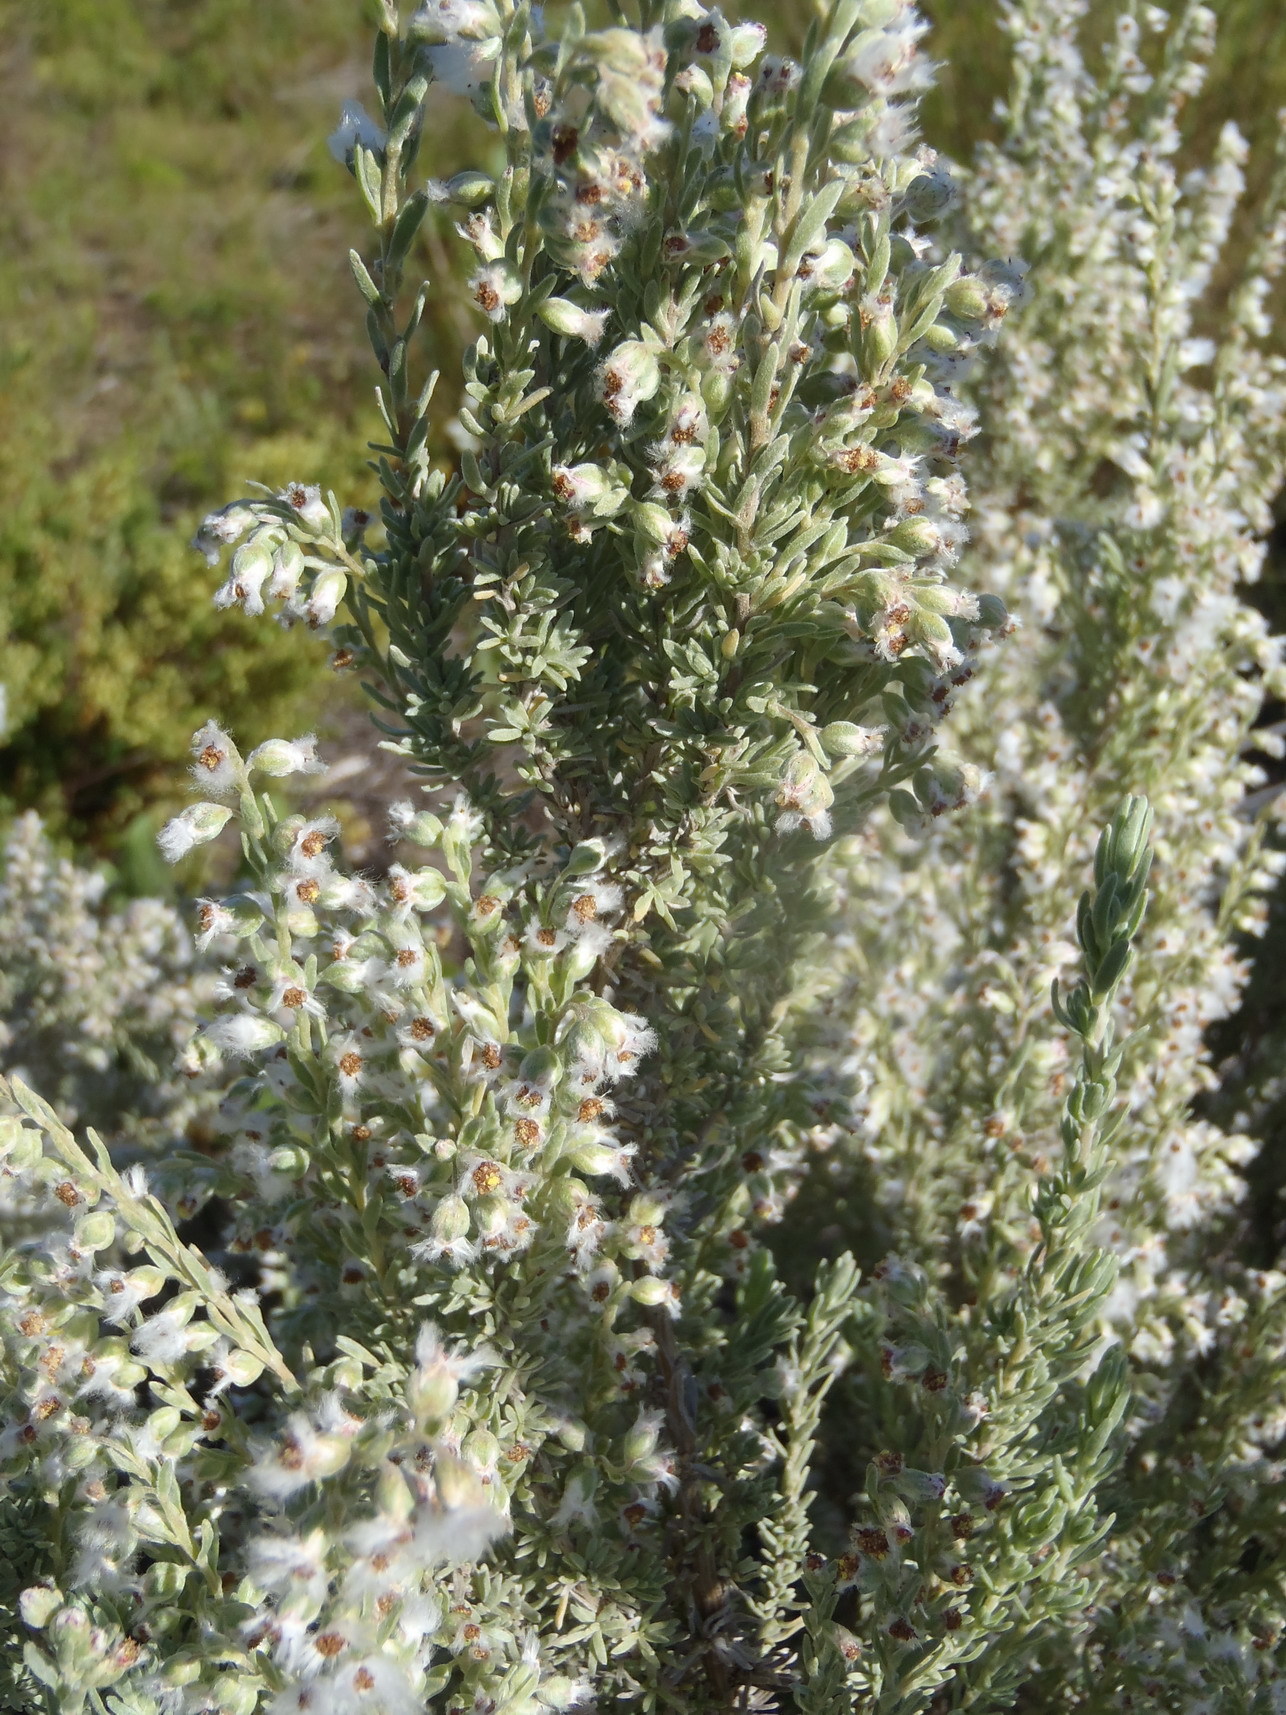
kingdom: Plantae
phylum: Tracheophyta
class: Magnoliopsida
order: Asterales
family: Asteraceae
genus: Eriocephalus
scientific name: Eriocephalus racemosus
